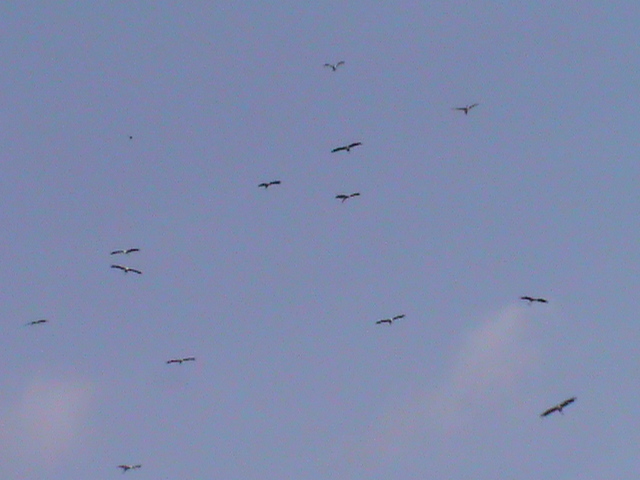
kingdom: Animalia
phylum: Chordata
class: Aves
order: Ciconiiformes
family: Ciconiidae
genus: Anastomus
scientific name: Anastomus oscitans
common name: Asian openbill
